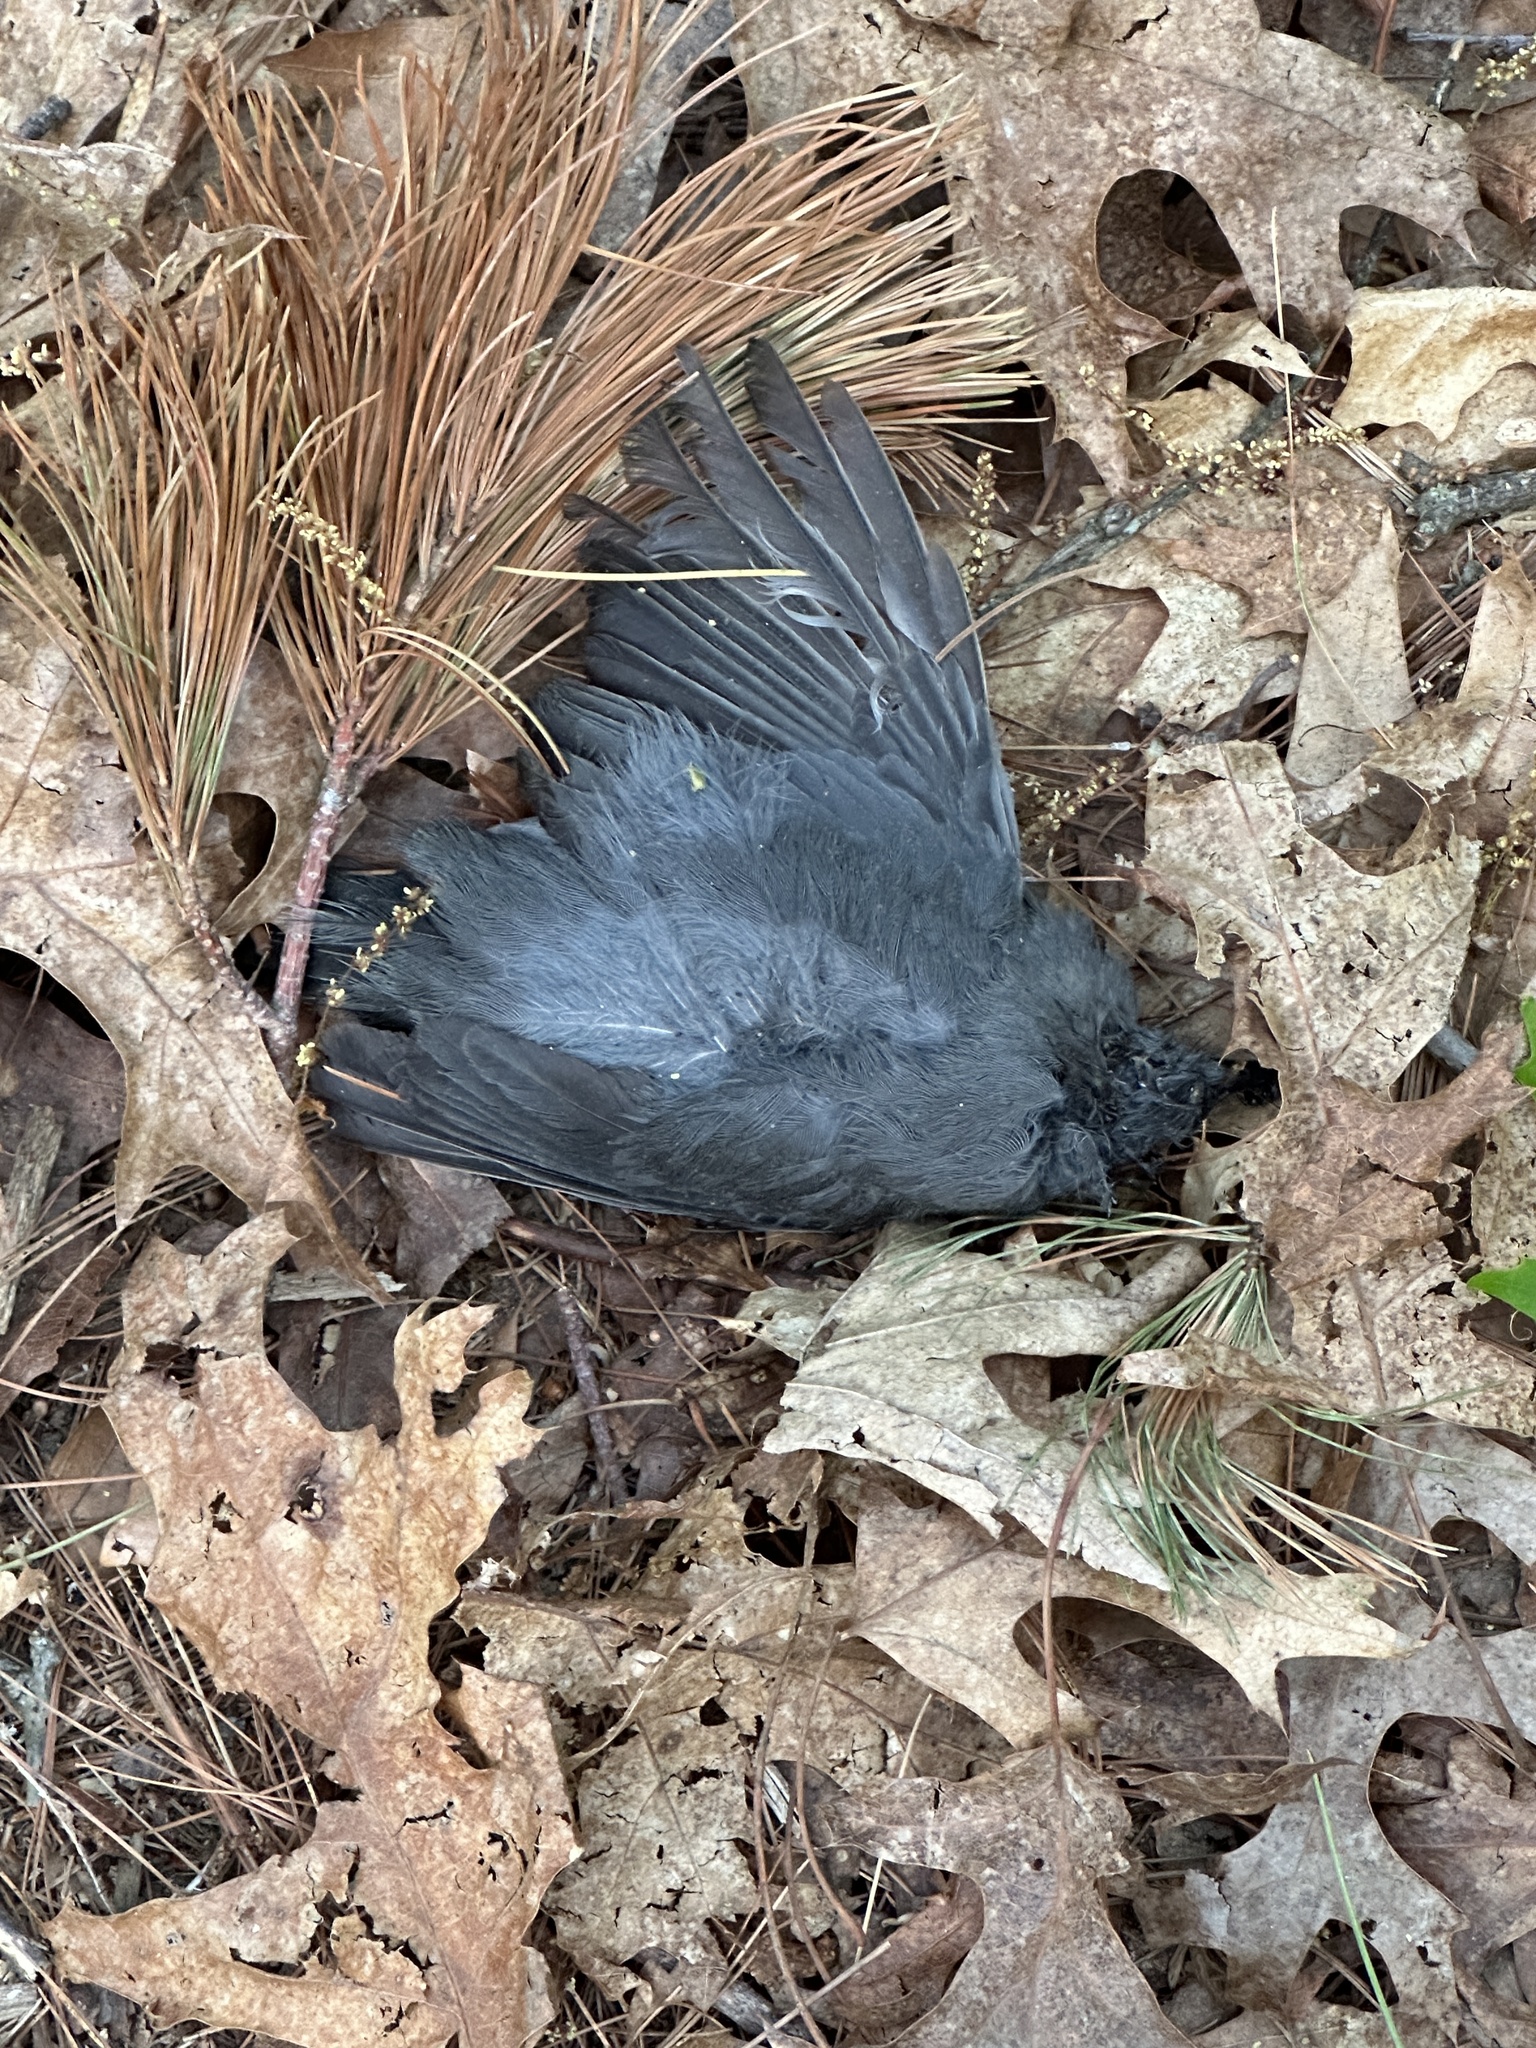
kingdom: Animalia
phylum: Chordata
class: Aves
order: Passeriformes
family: Mimidae
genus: Dumetella
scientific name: Dumetella carolinensis
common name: Gray catbird
